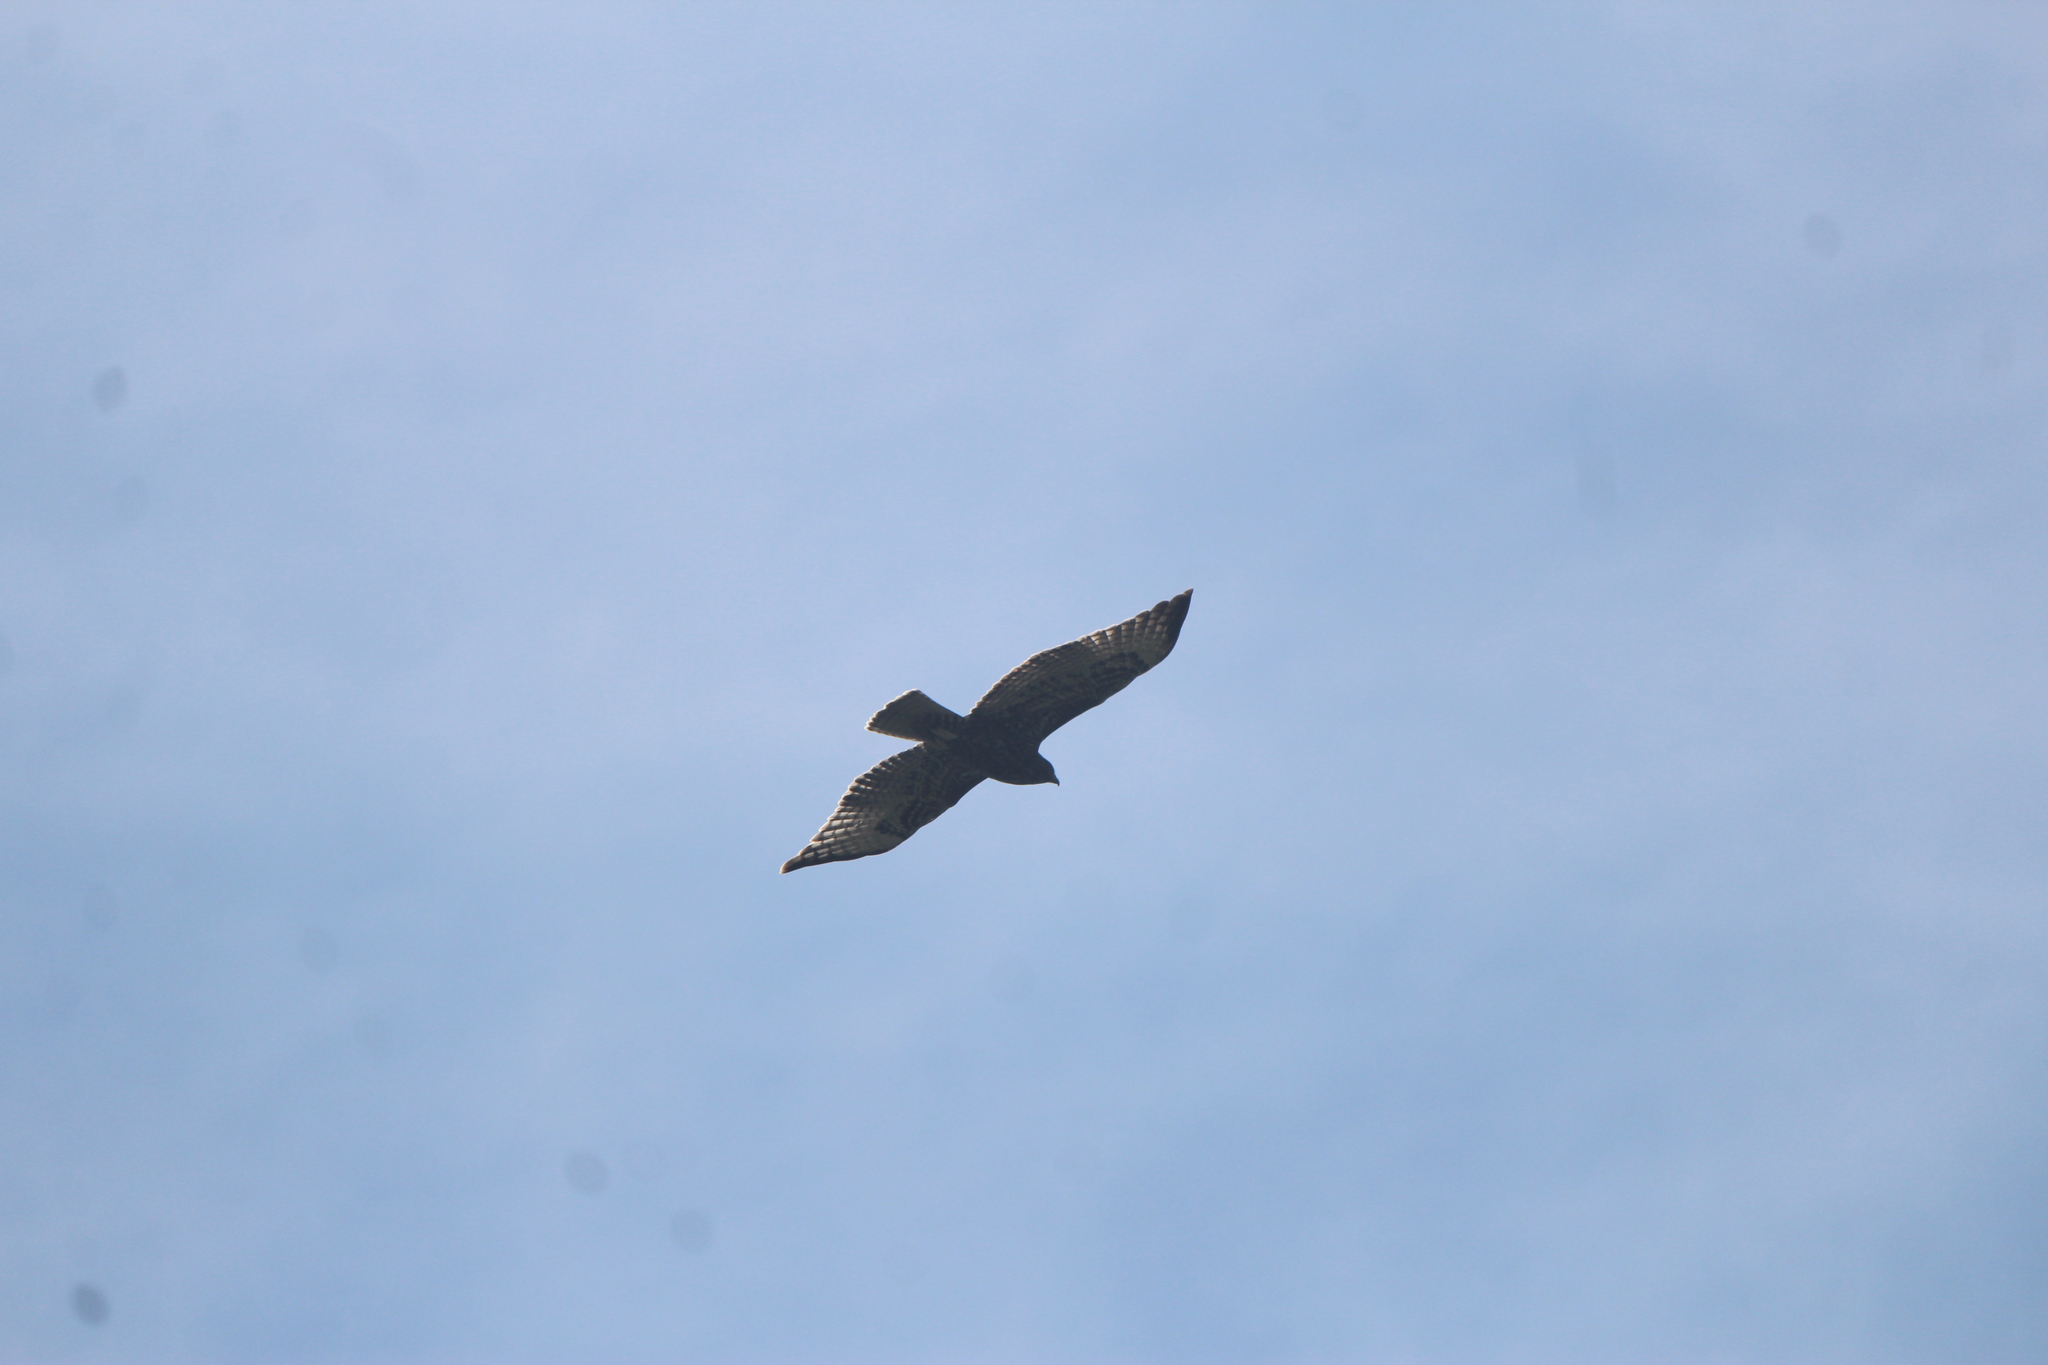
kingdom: Animalia
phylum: Chordata
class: Aves
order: Accipitriformes
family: Accipitridae
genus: Buteo
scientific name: Buteo jamaicensis
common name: Red-tailed hawk
